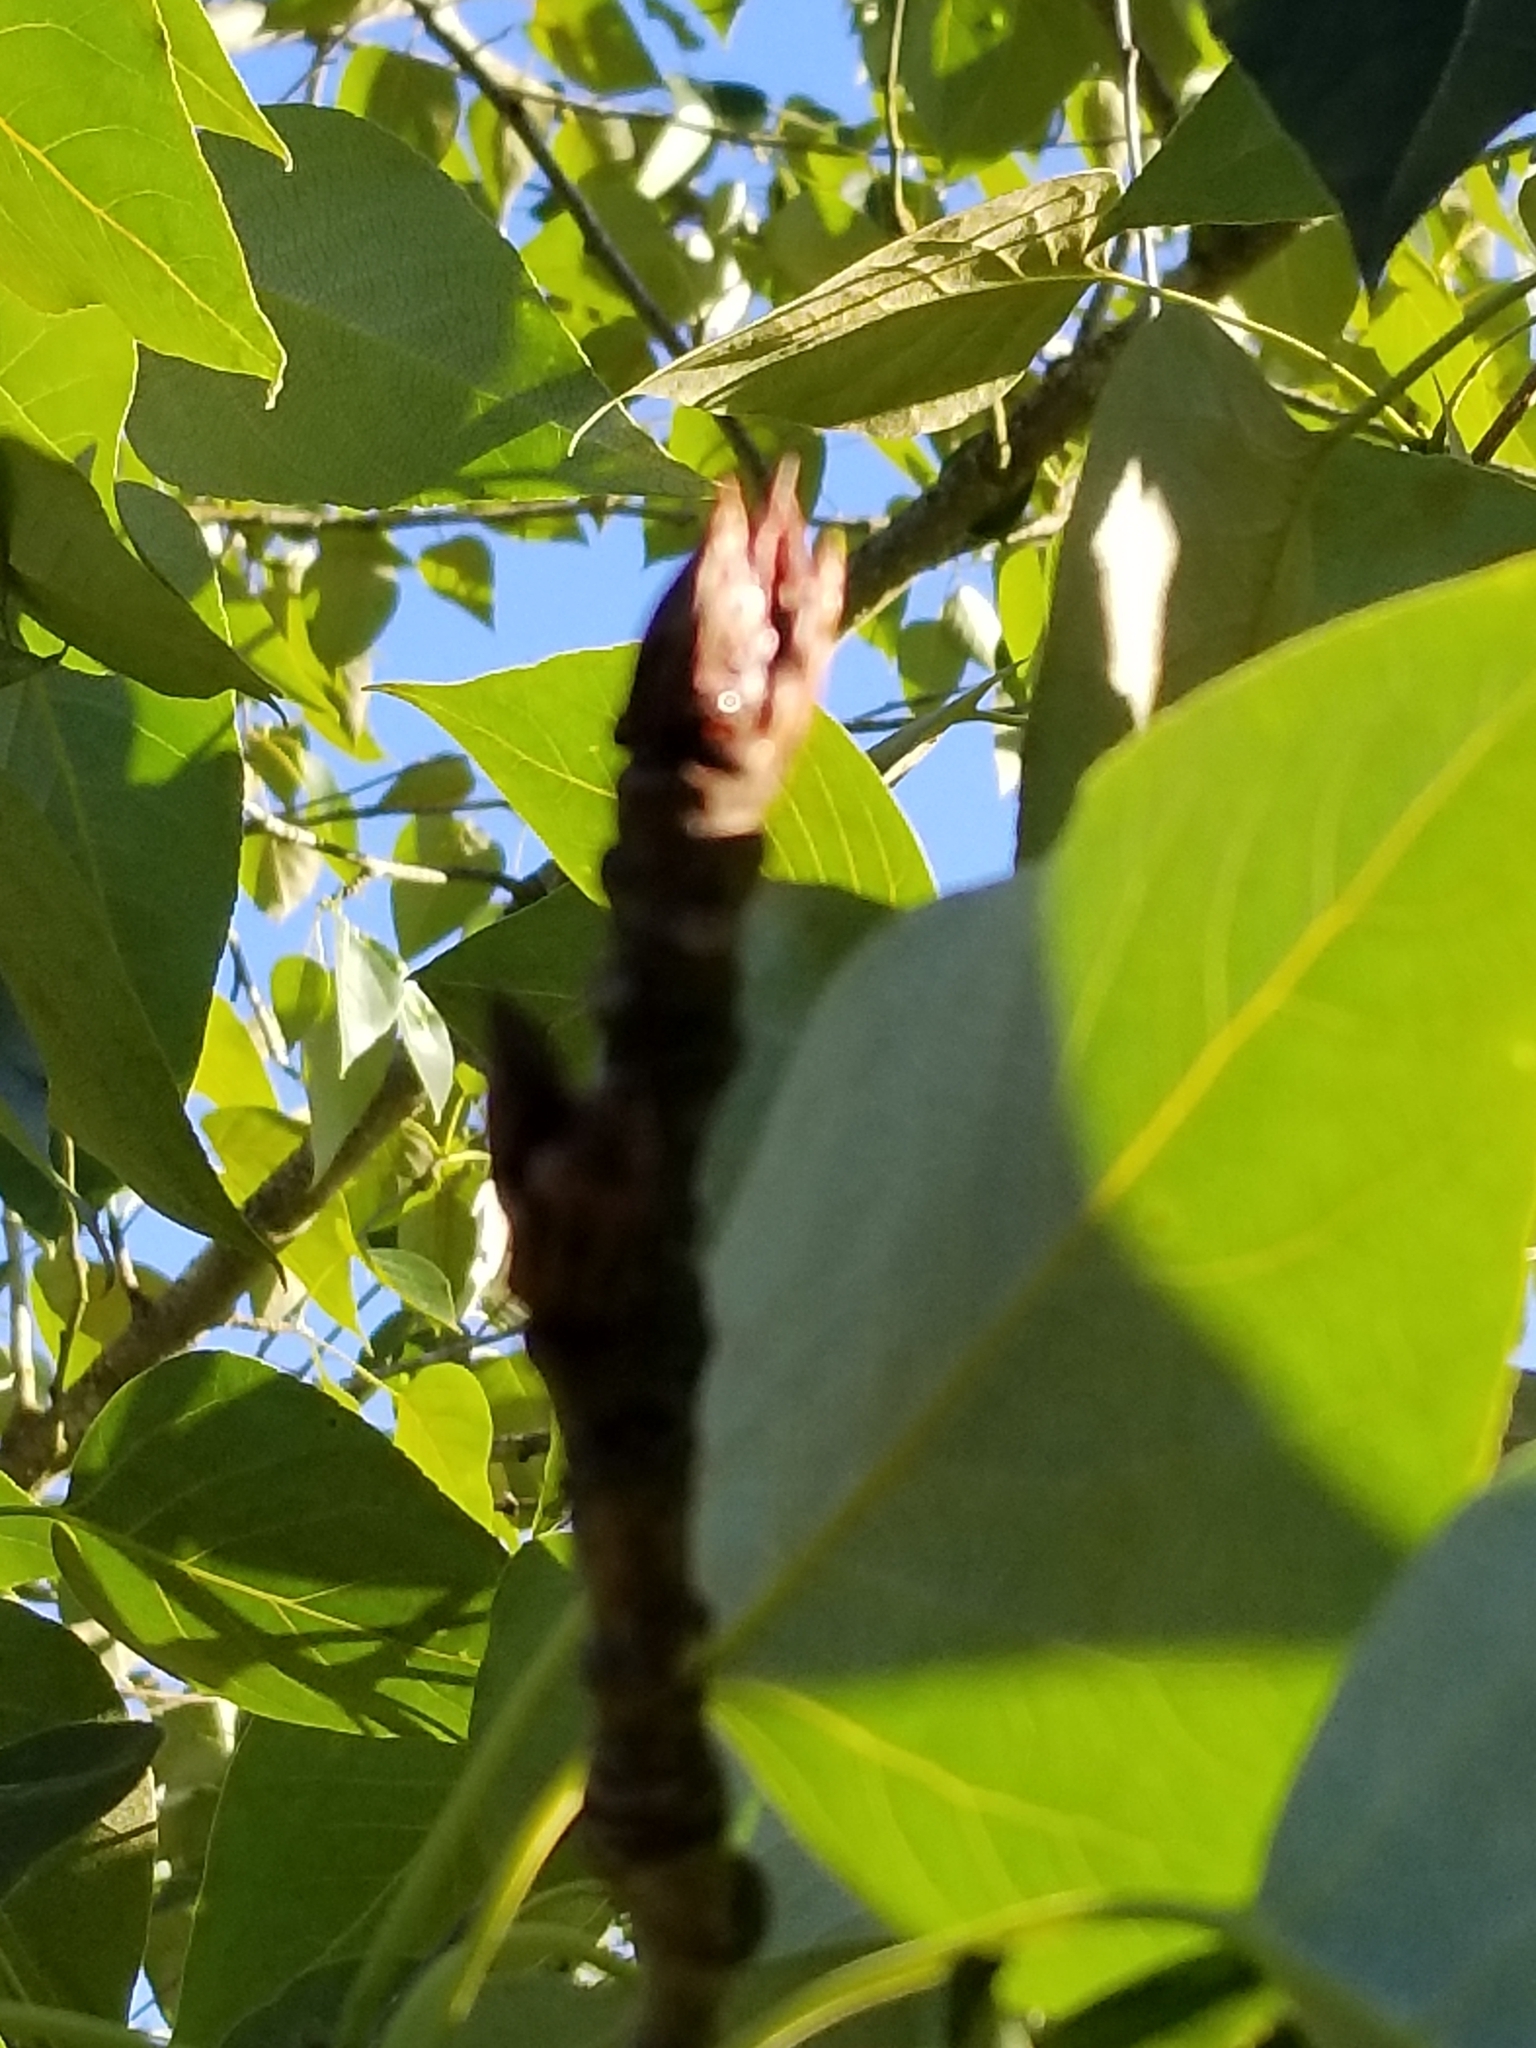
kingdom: Plantae
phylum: Tracheophyta
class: Magnoliopsida
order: Malpighiales
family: Salicaceae
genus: Populus
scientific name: Populus trichocarpa
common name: Black cottonwood
